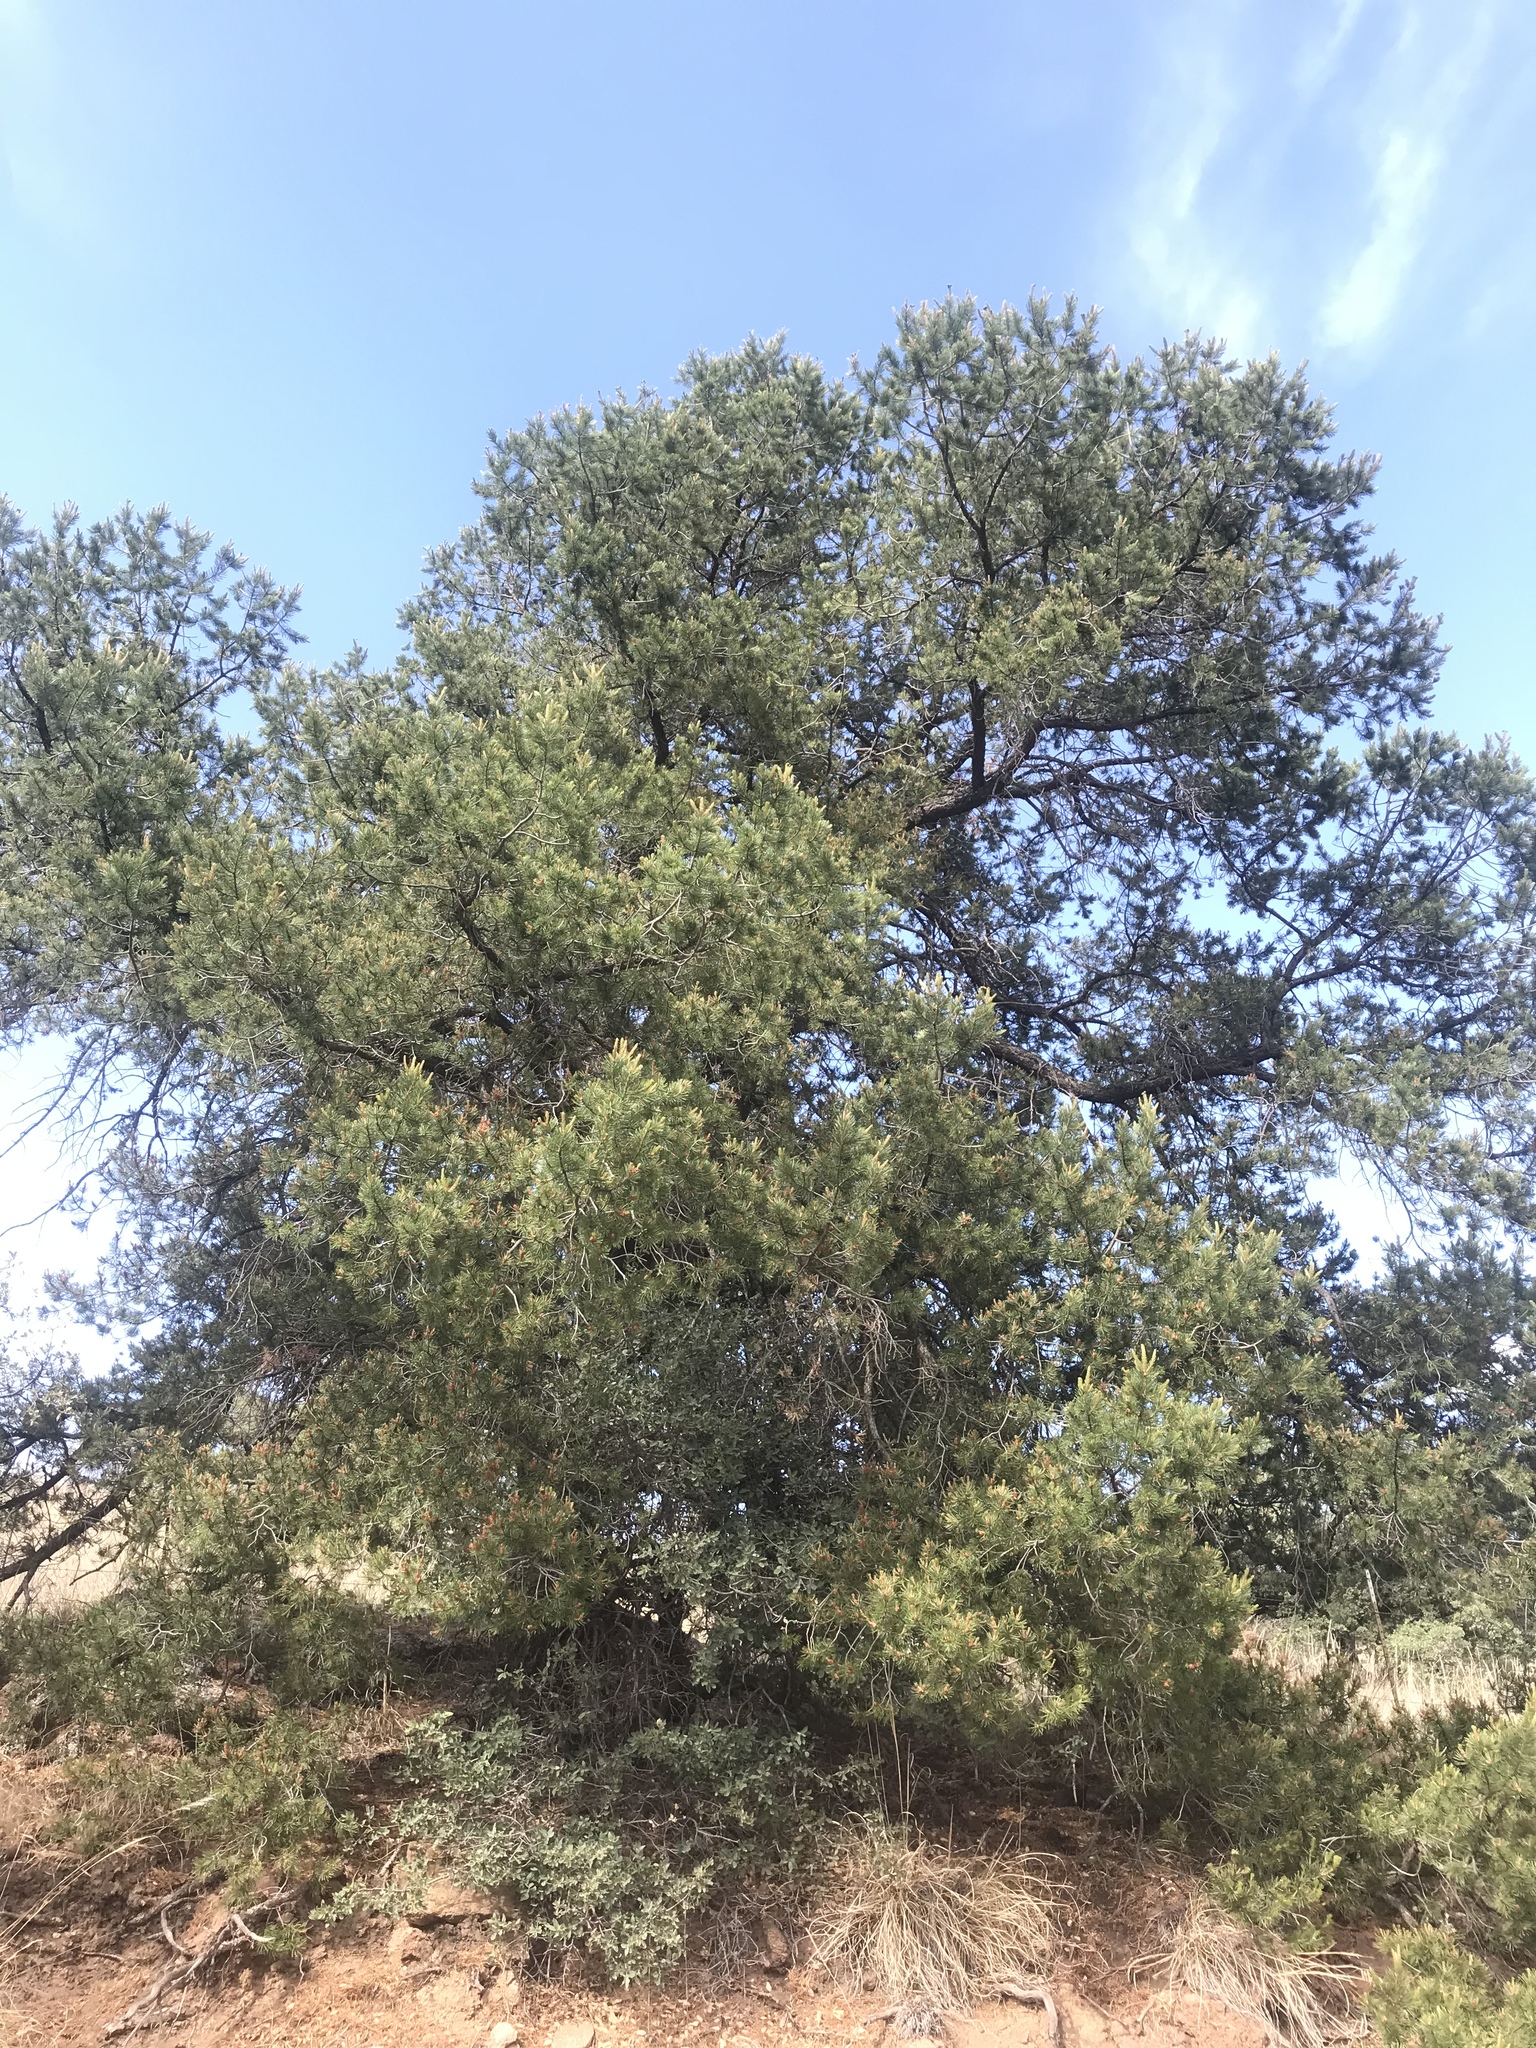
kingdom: Plantae
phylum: Tracheophyta
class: Pinopsida
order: Pinales
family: Pinaceae
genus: Pinus
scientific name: Pinus cembroides
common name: Mexican nut pine
